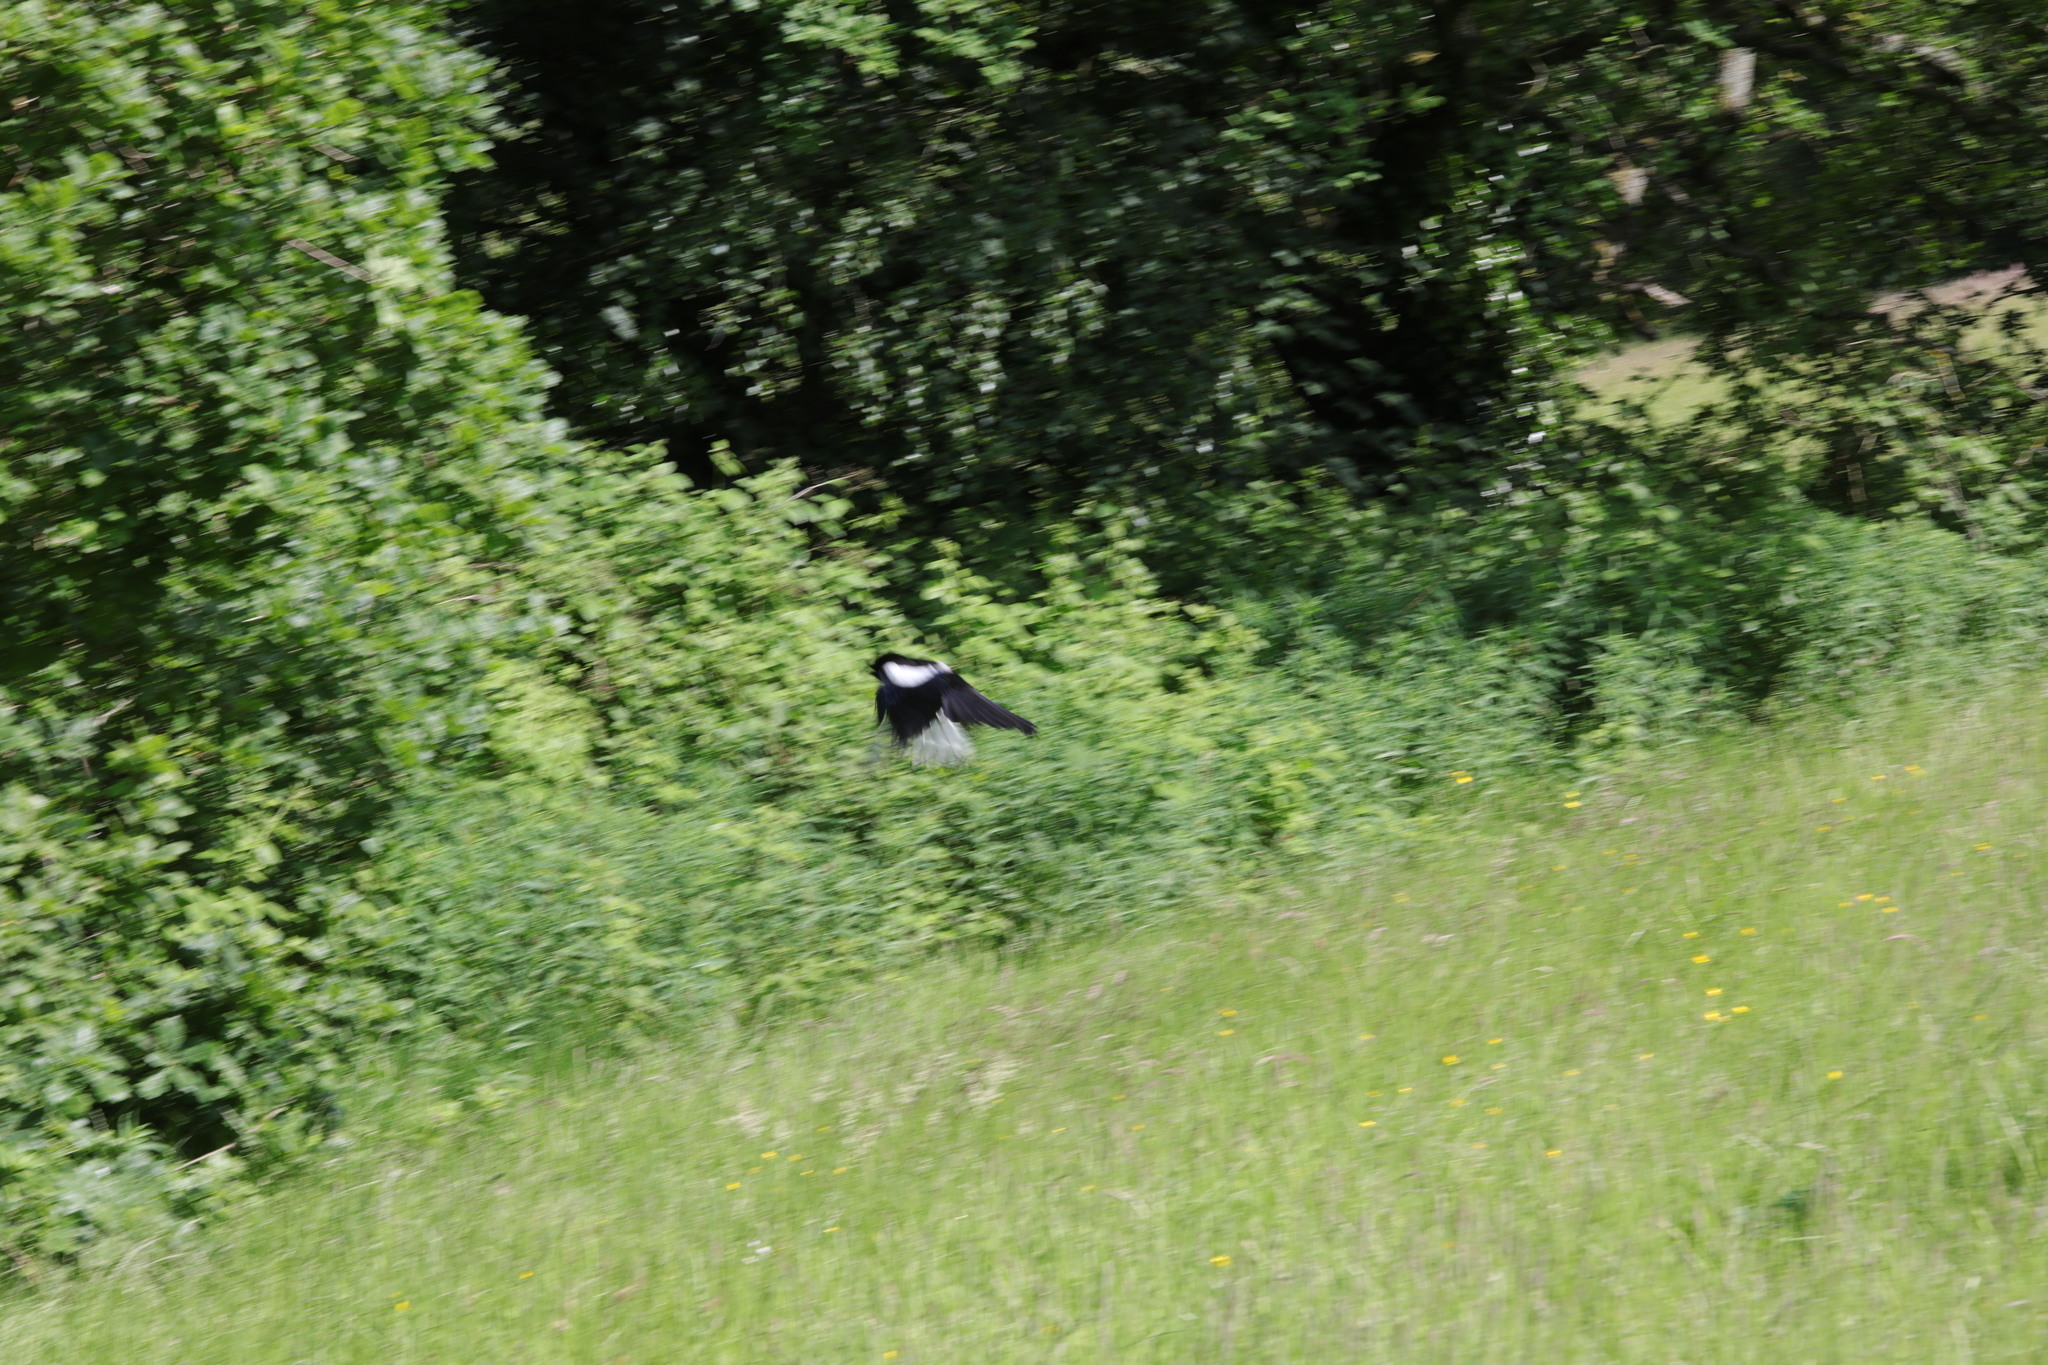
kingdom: Animalia
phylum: Chordata
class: Aves
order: Passeriformes
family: Corvidae
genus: Pica
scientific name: Pica pica
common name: Eurasian magpie
